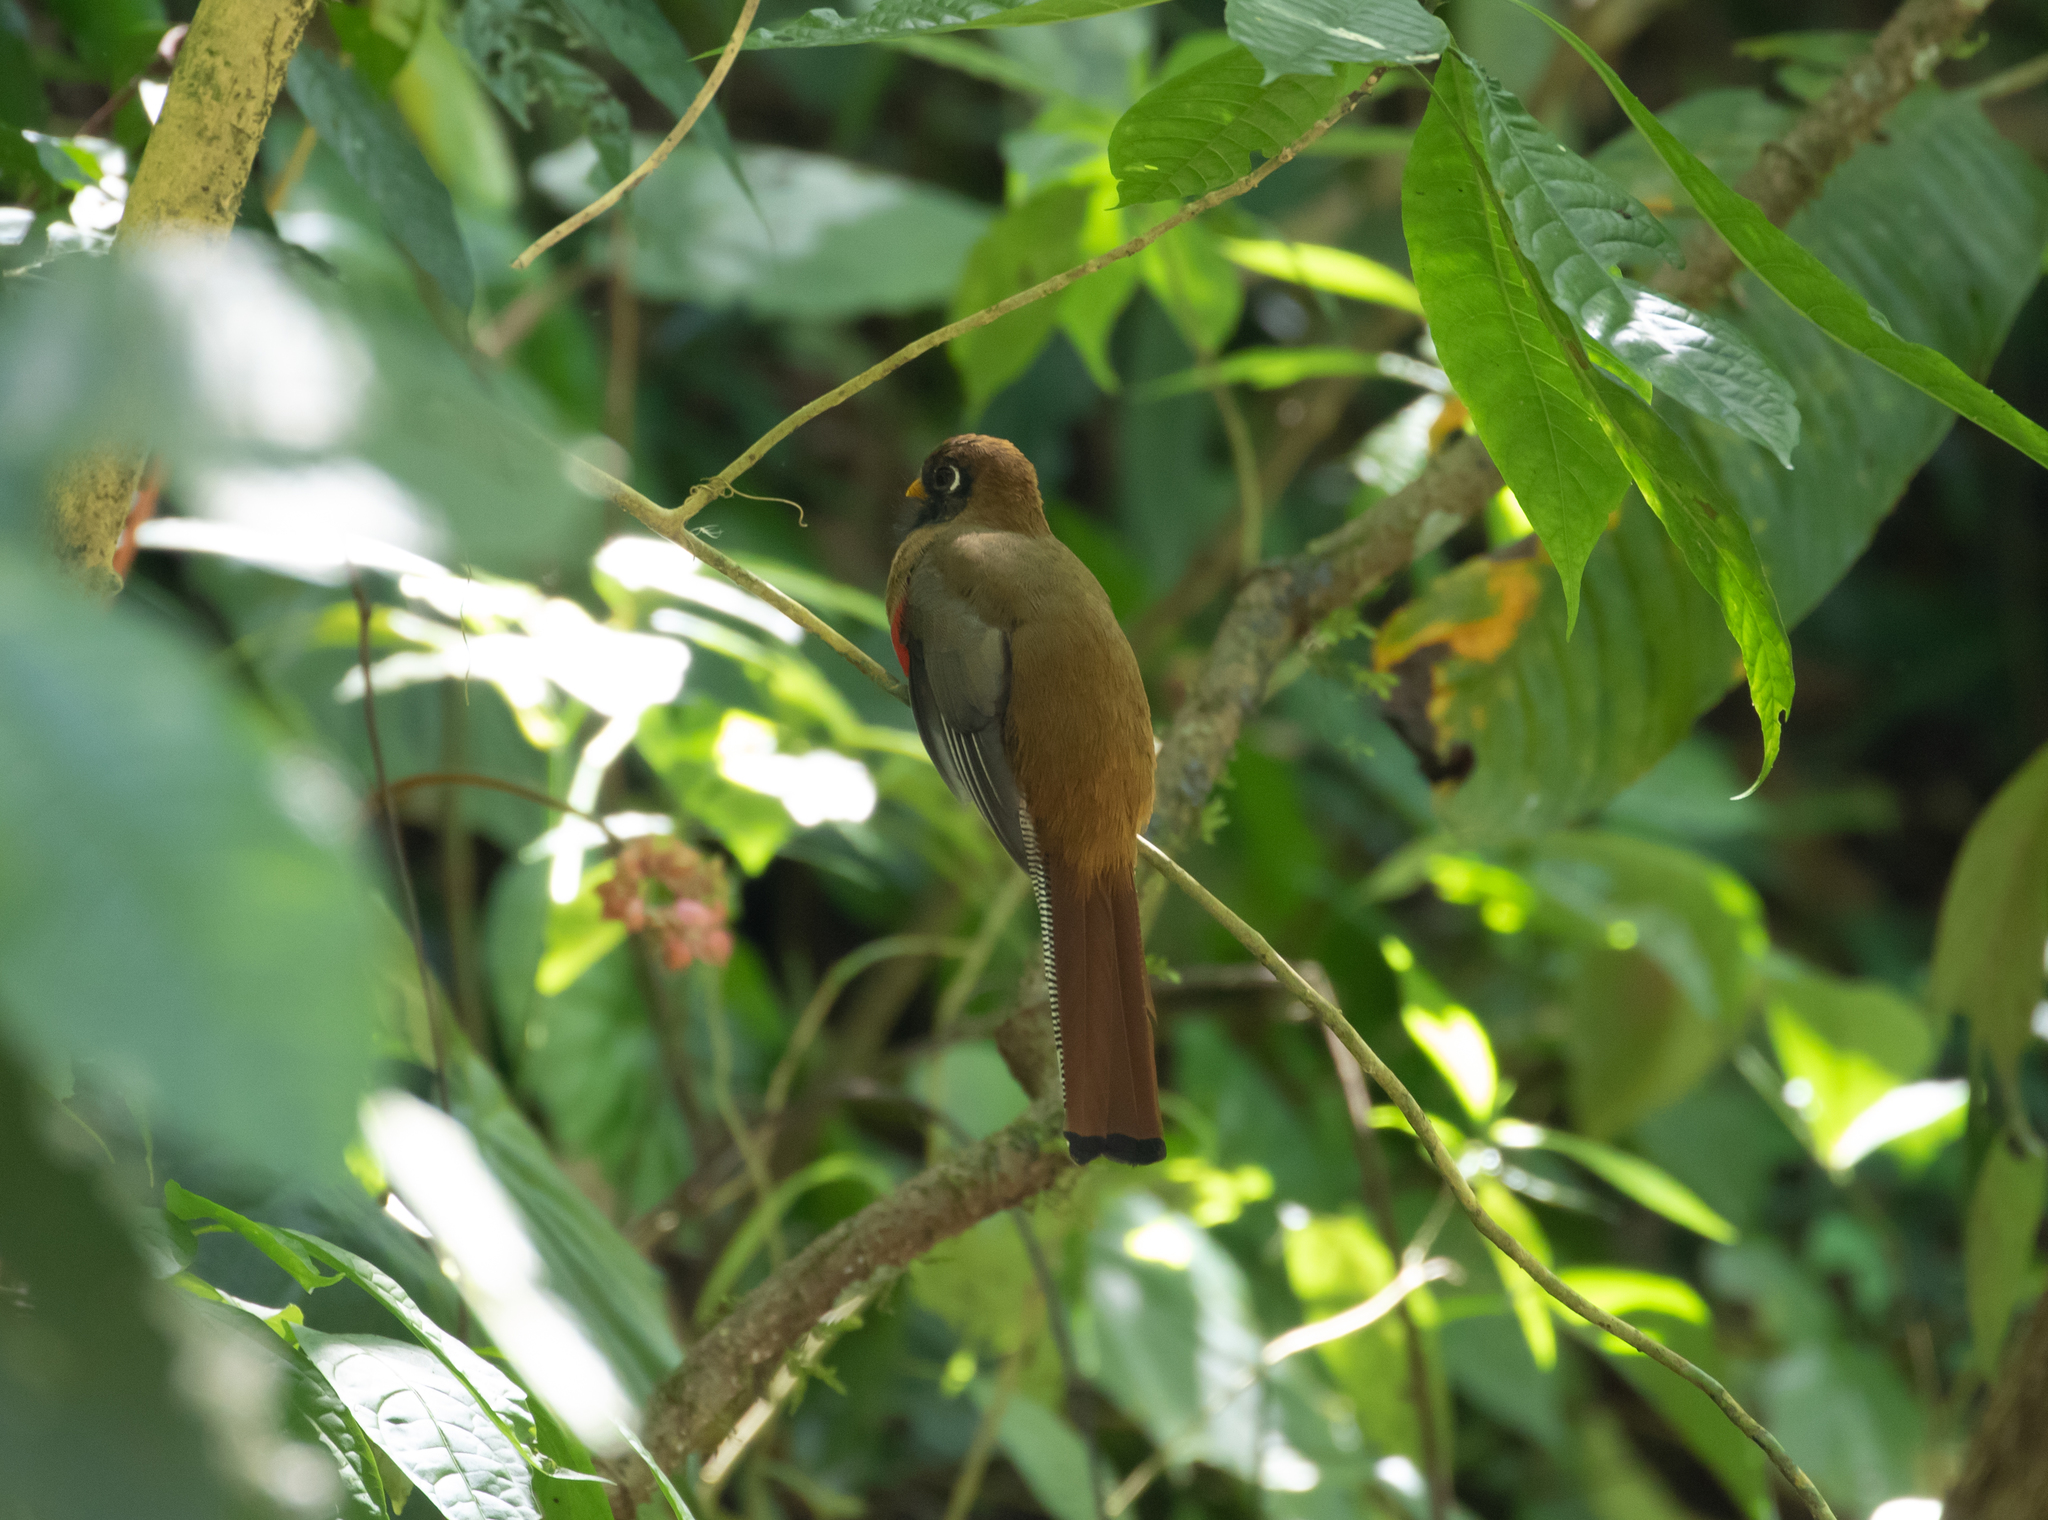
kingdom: Animalia
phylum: Chordata
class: Aves
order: Trogoniformes
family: Trogonidae
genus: Trogon
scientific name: Trogon personatus
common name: Masked trogon
